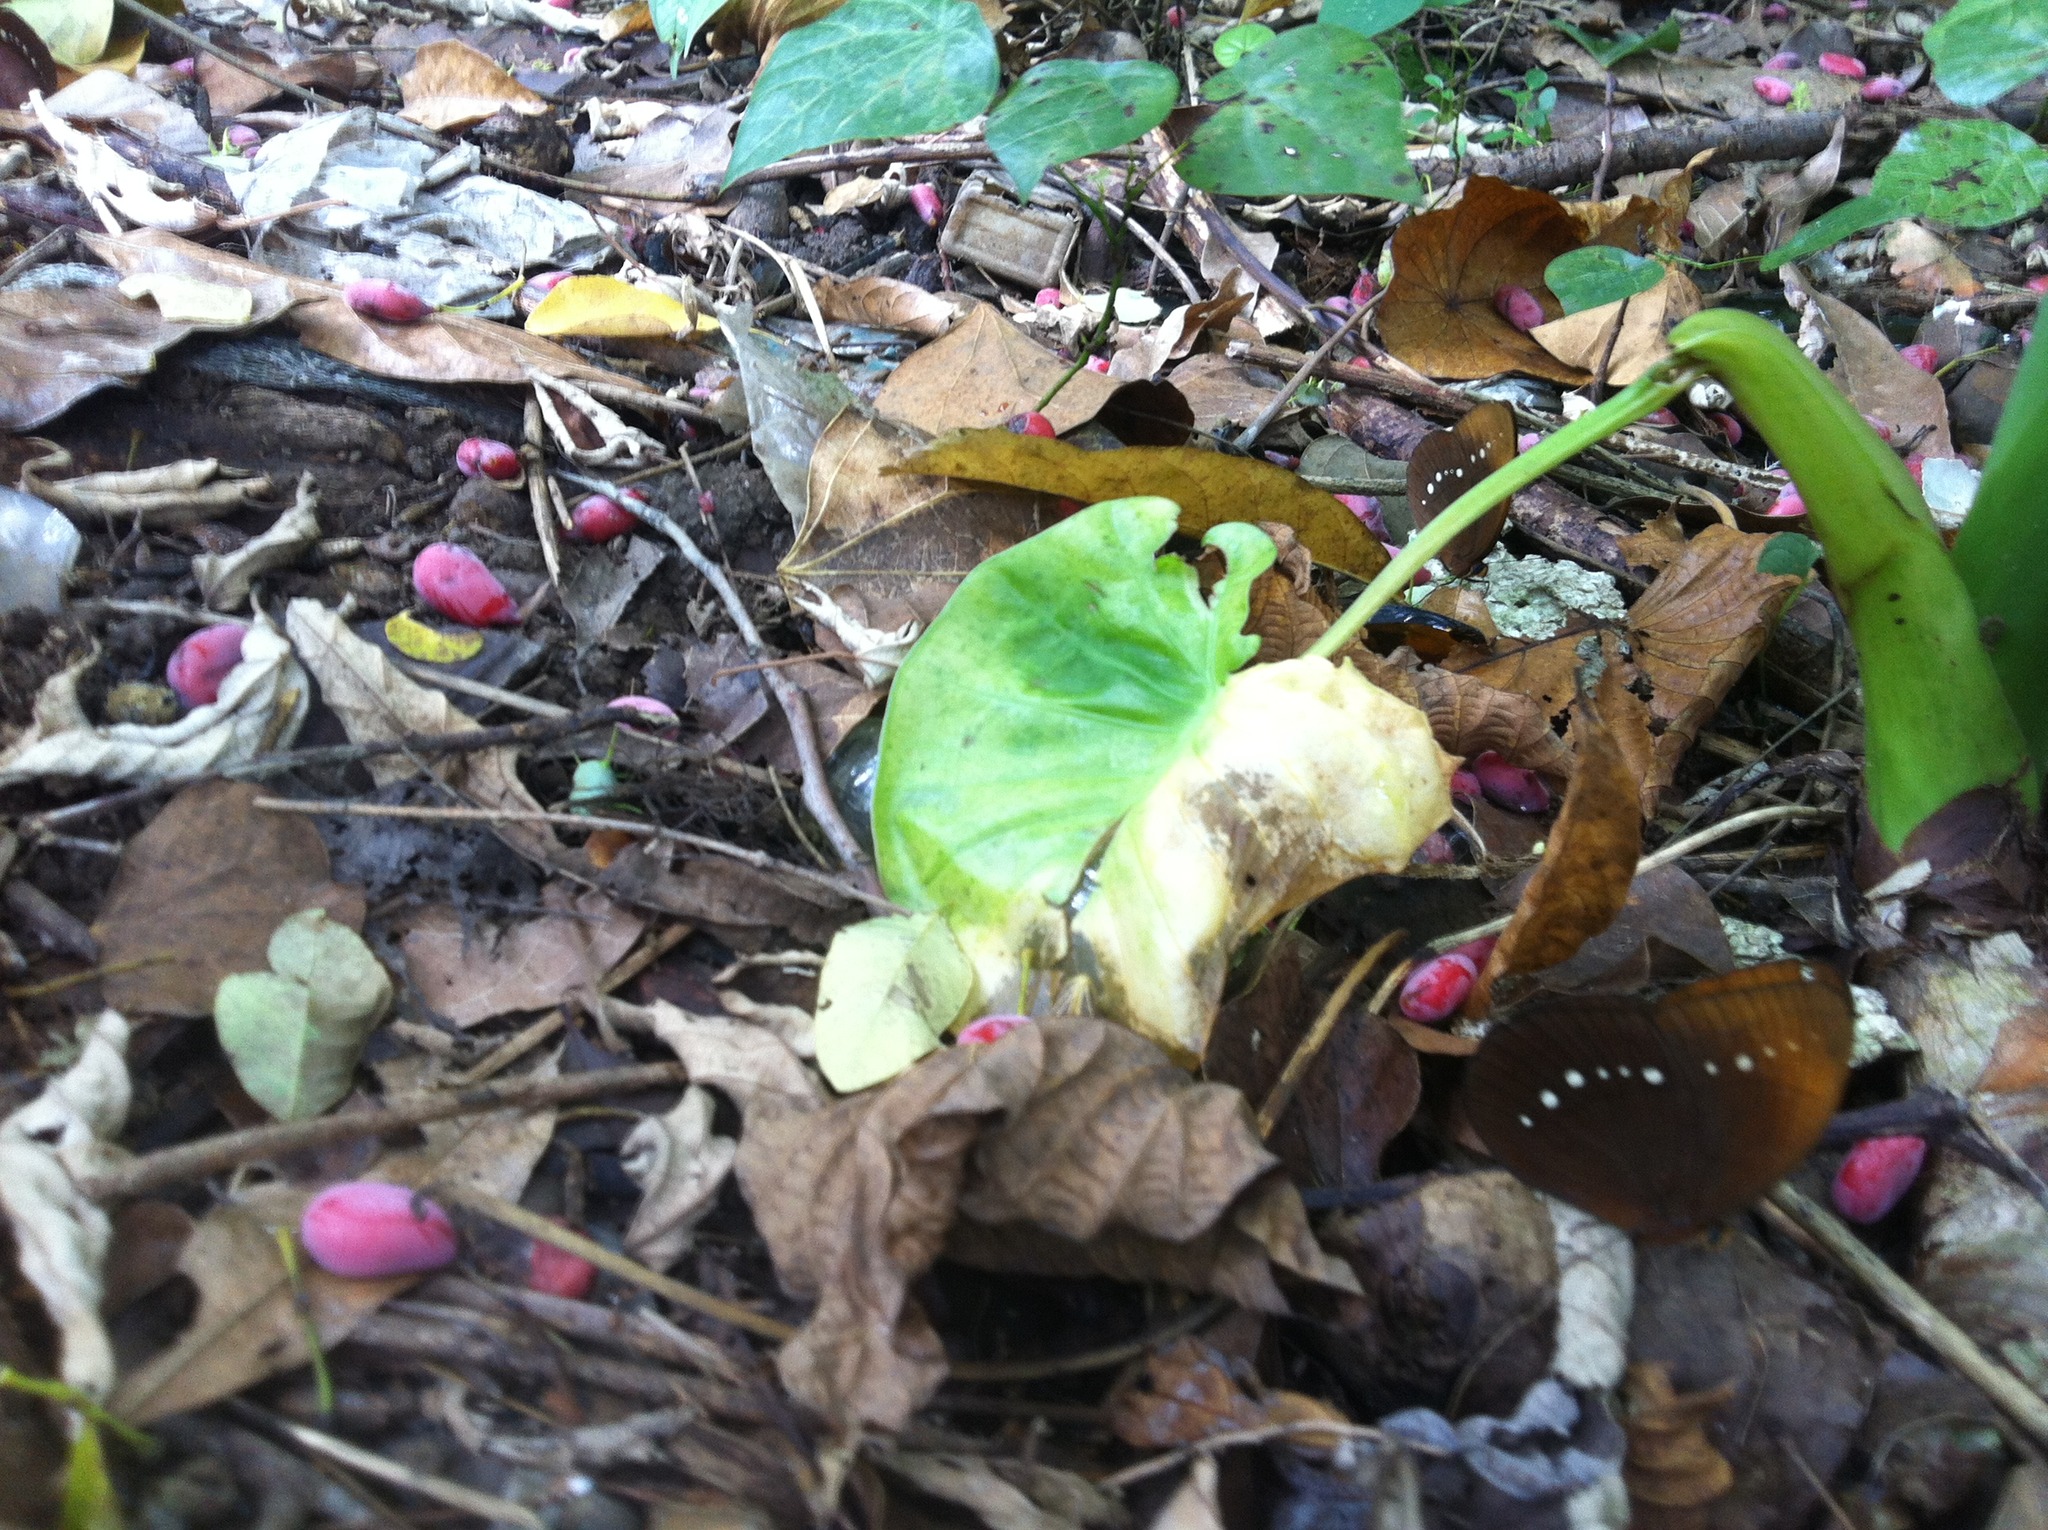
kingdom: Animalia
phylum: Arthropoda
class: Insecta
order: Lepidoptera
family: Nymphalidae
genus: Faunis
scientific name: Faunis eumeus
